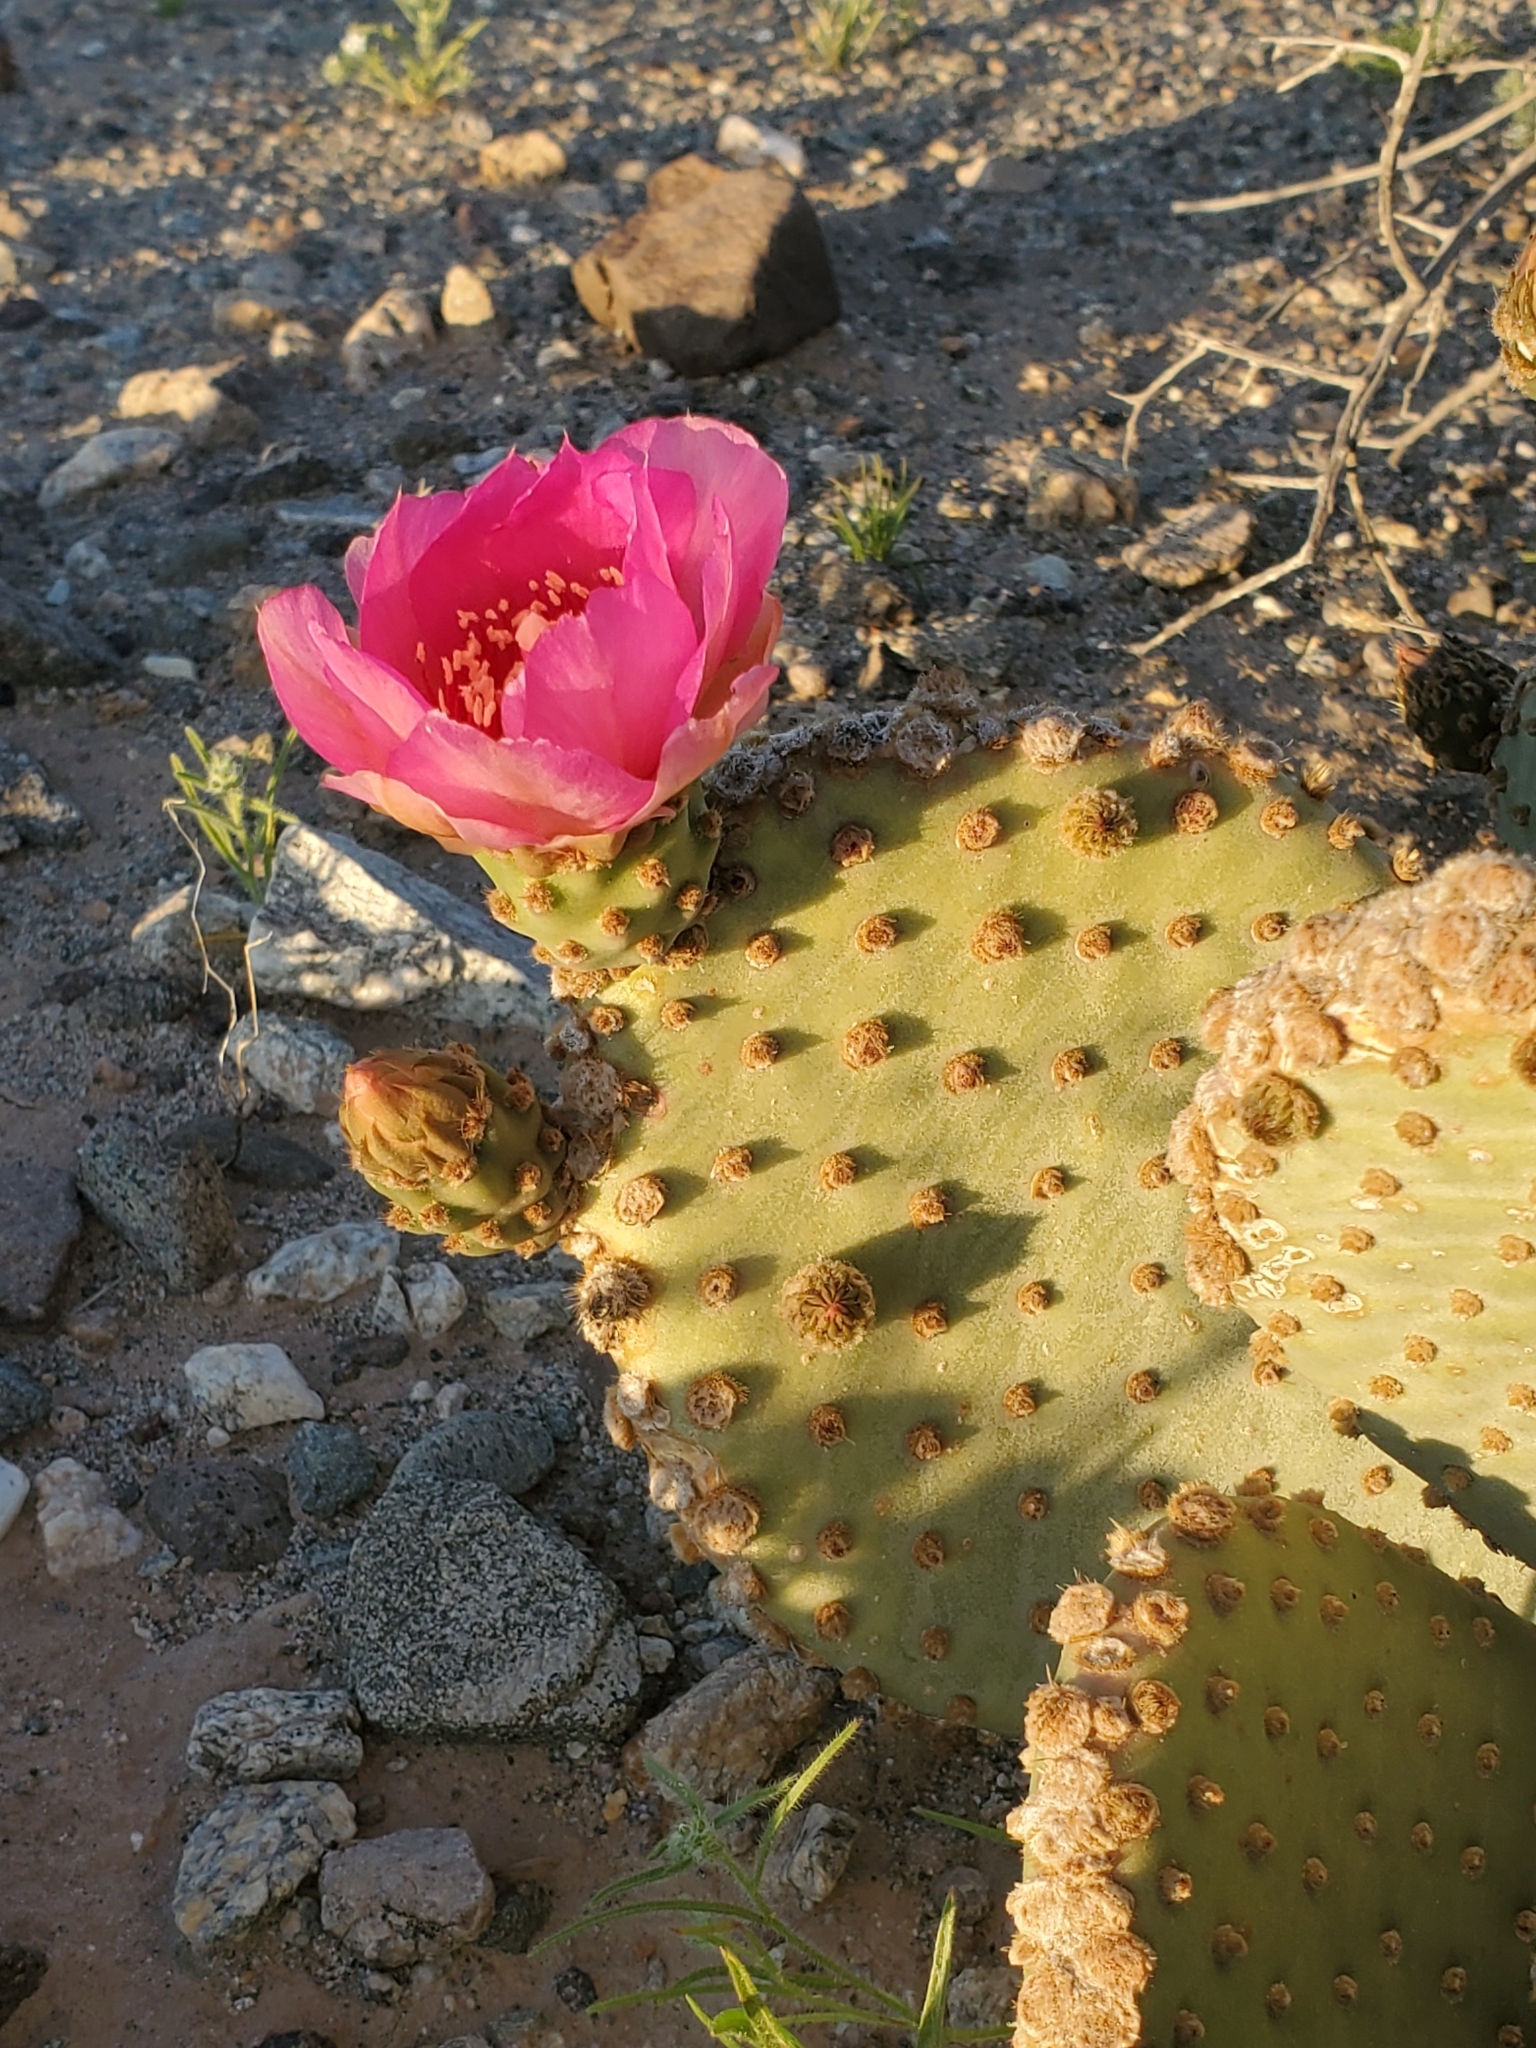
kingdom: Plantae
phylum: Tracheophyta
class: Magnoliopsida
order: Caryophyllales
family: Cactaceae
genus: Opuntia
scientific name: Opuntia basilaris
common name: Beavertail prickly-pear
